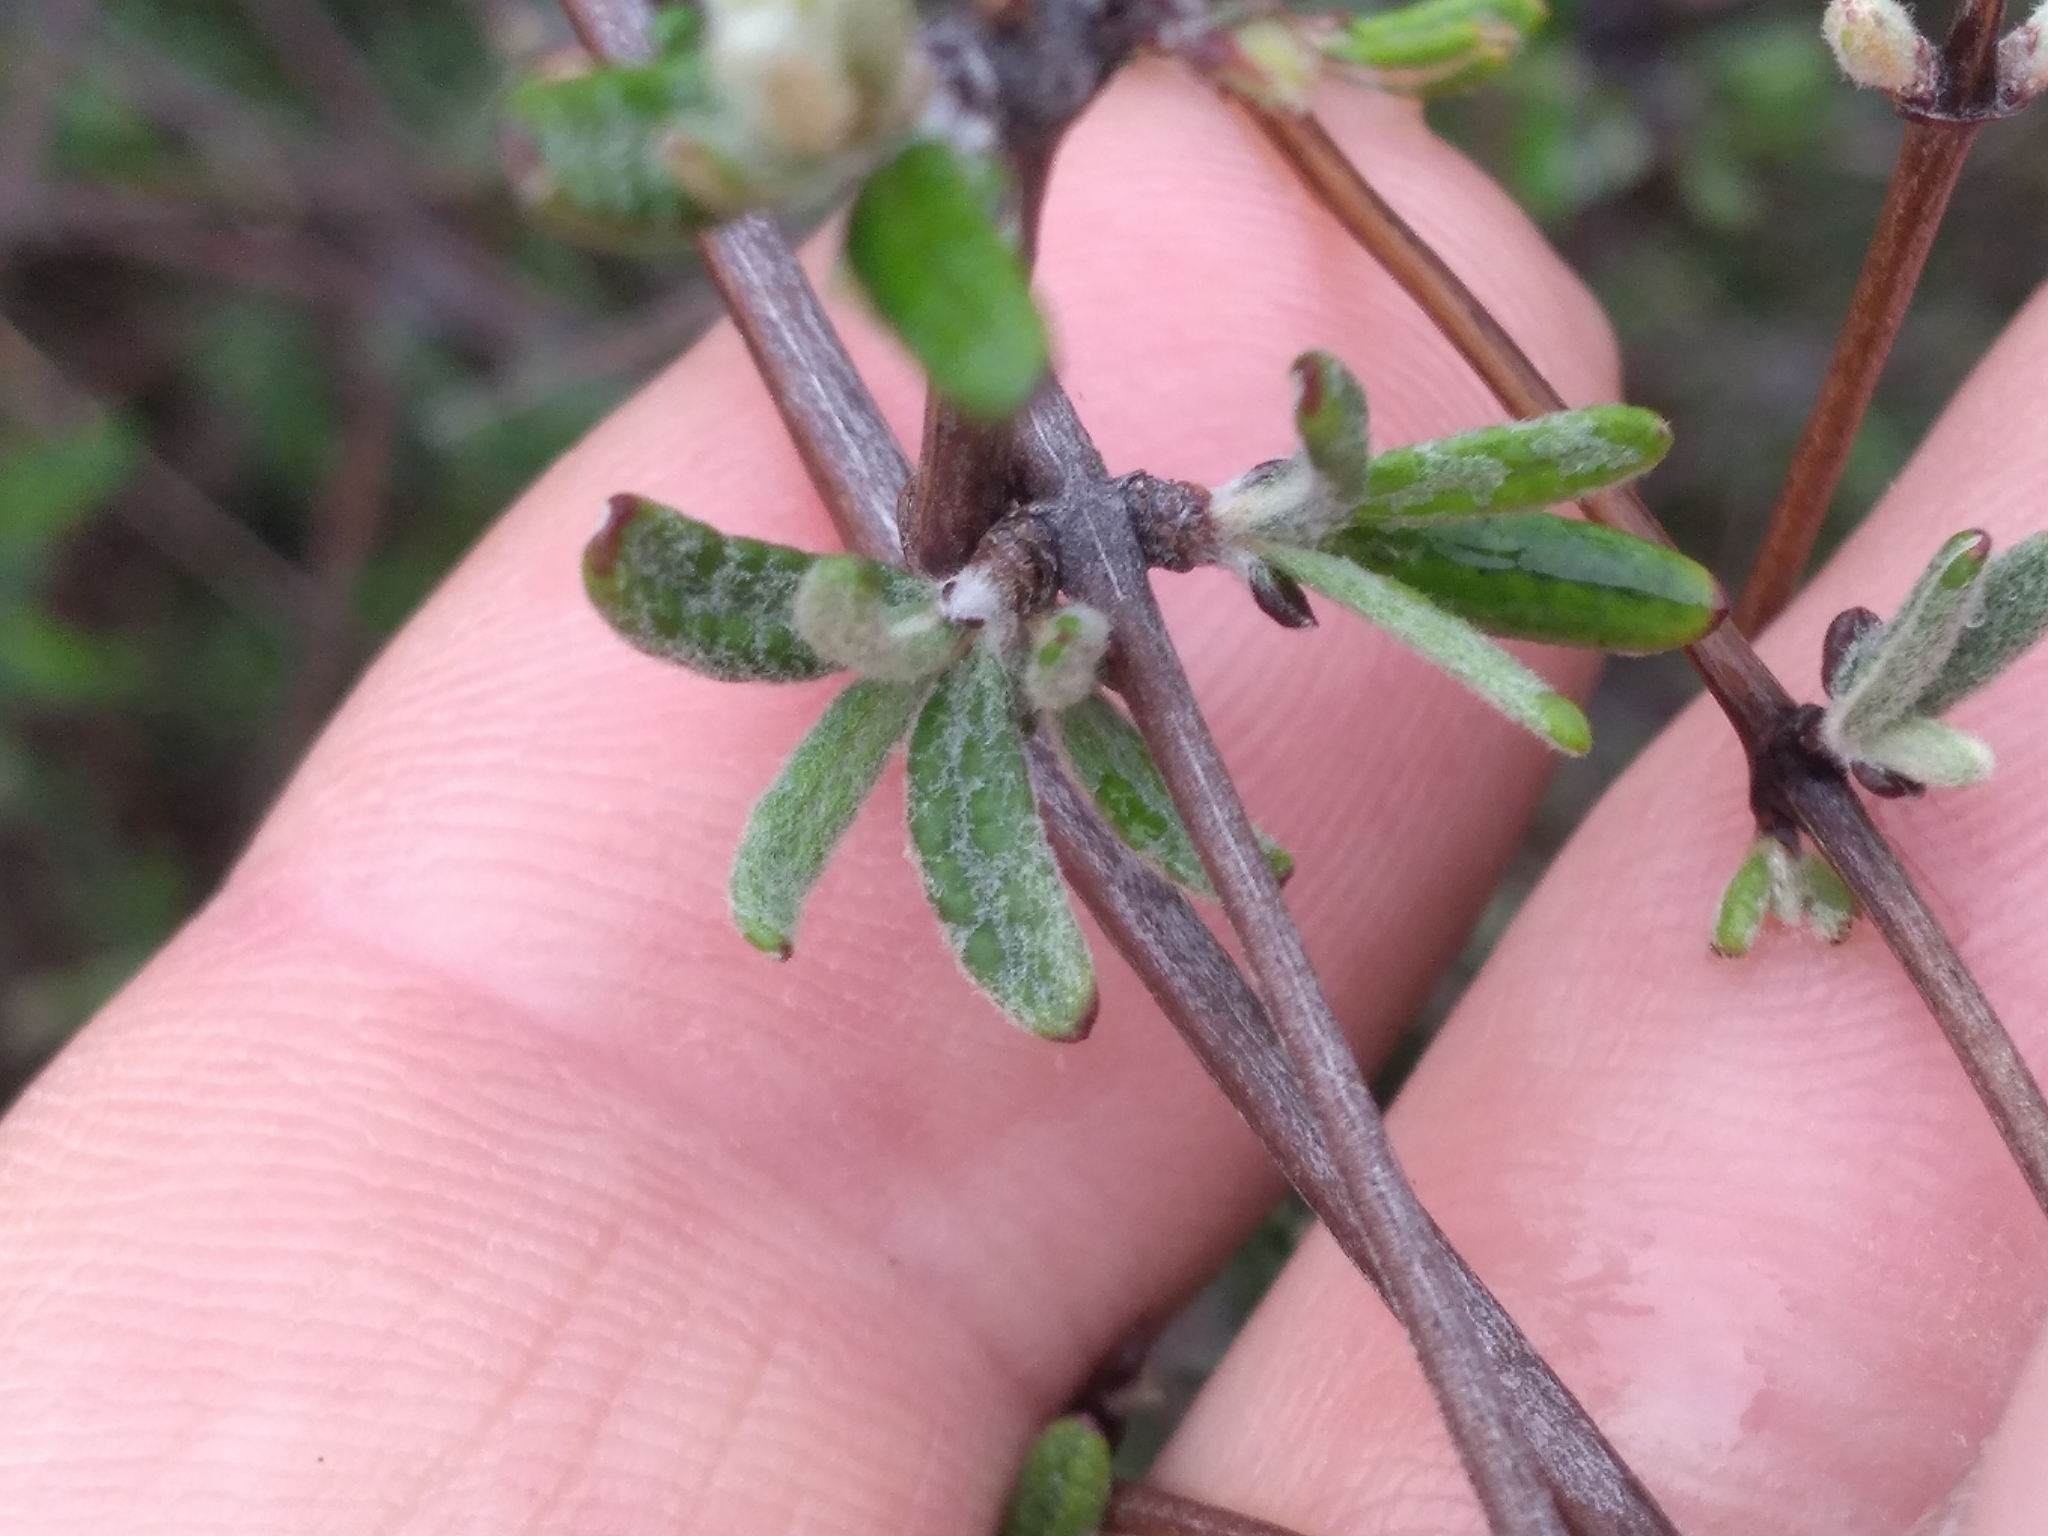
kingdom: Plantae
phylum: Tracheophyta
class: Magnoliopsida
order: Asterales
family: Asteraceae
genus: Olearia
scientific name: Olearia bullata
